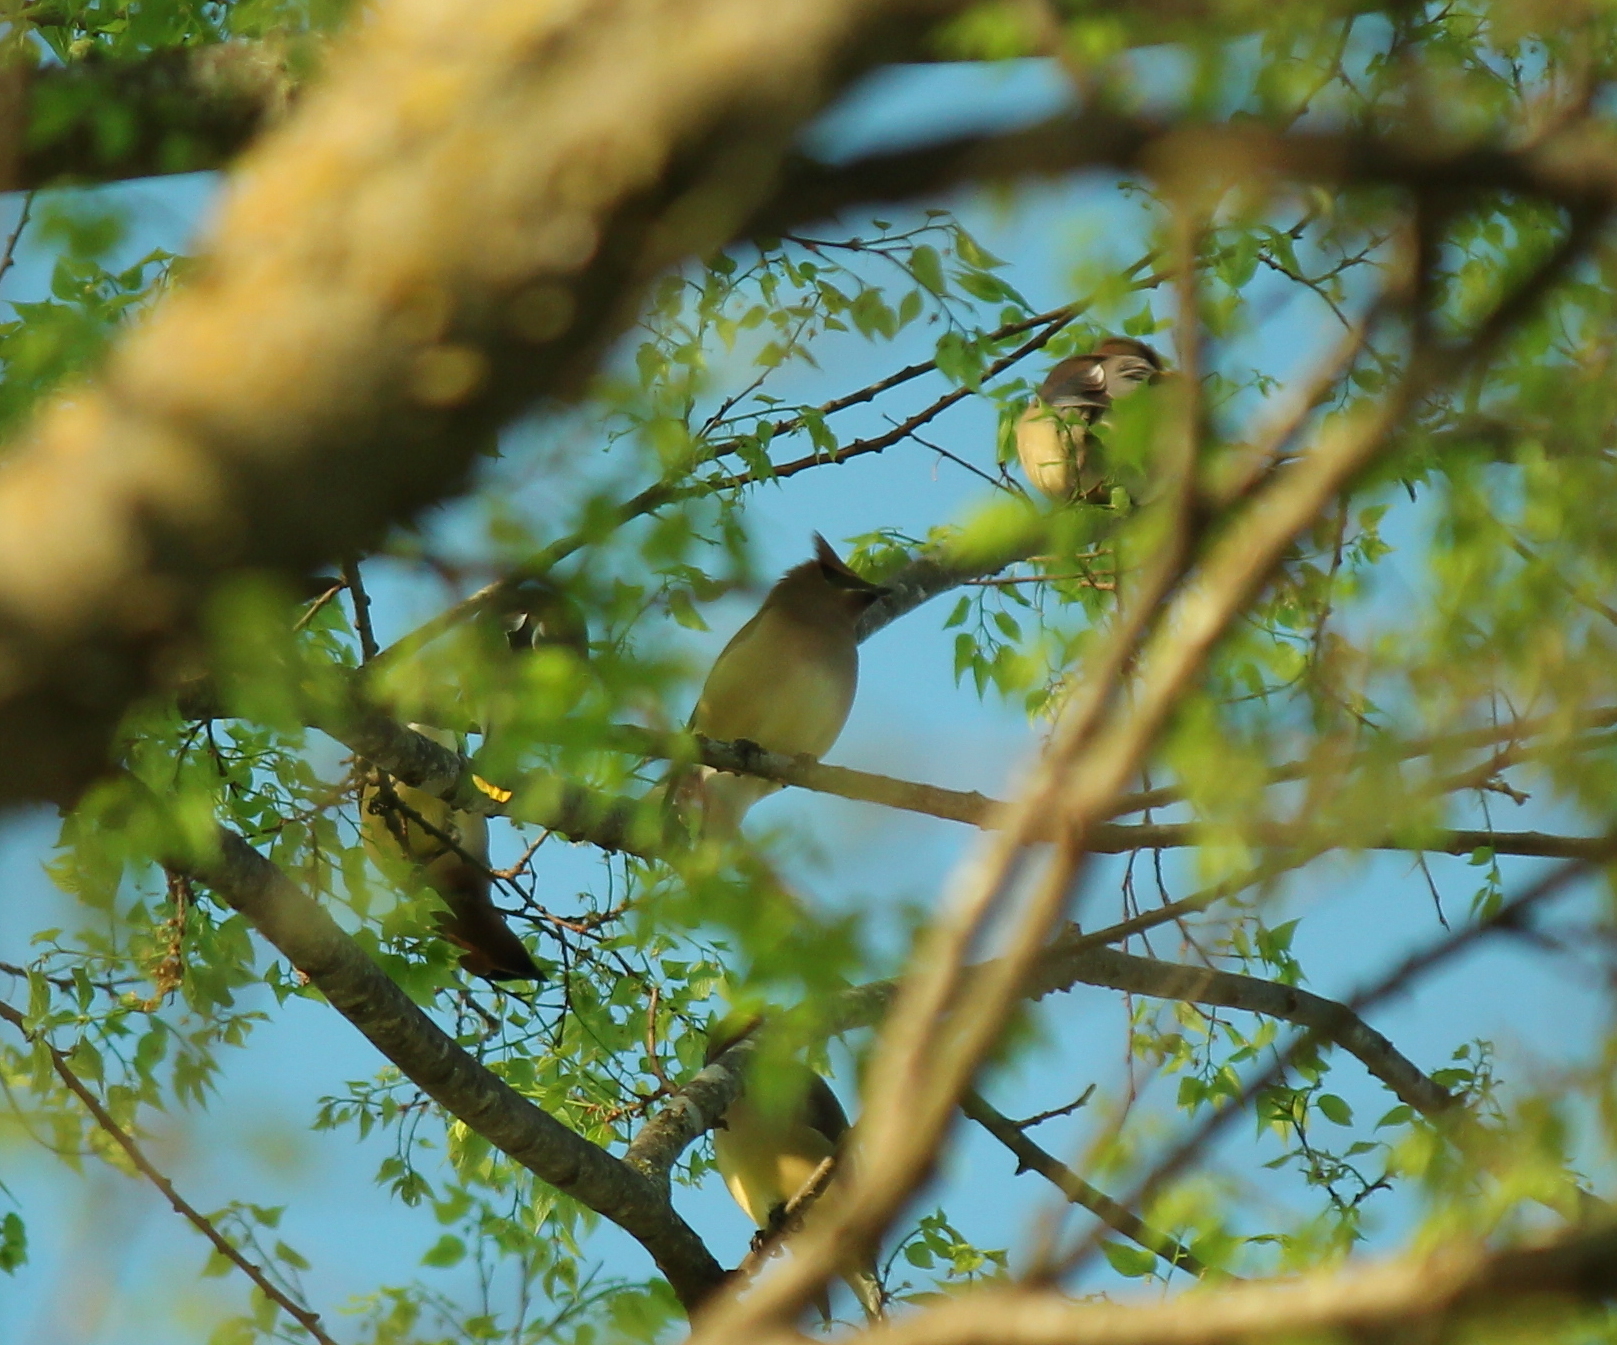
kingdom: Animalia
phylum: Chordata
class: Aves
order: Passeriformes
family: Bombycillidae
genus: Bombycilla
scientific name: Bombycilla cedrorum
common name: Cedar waxwing
